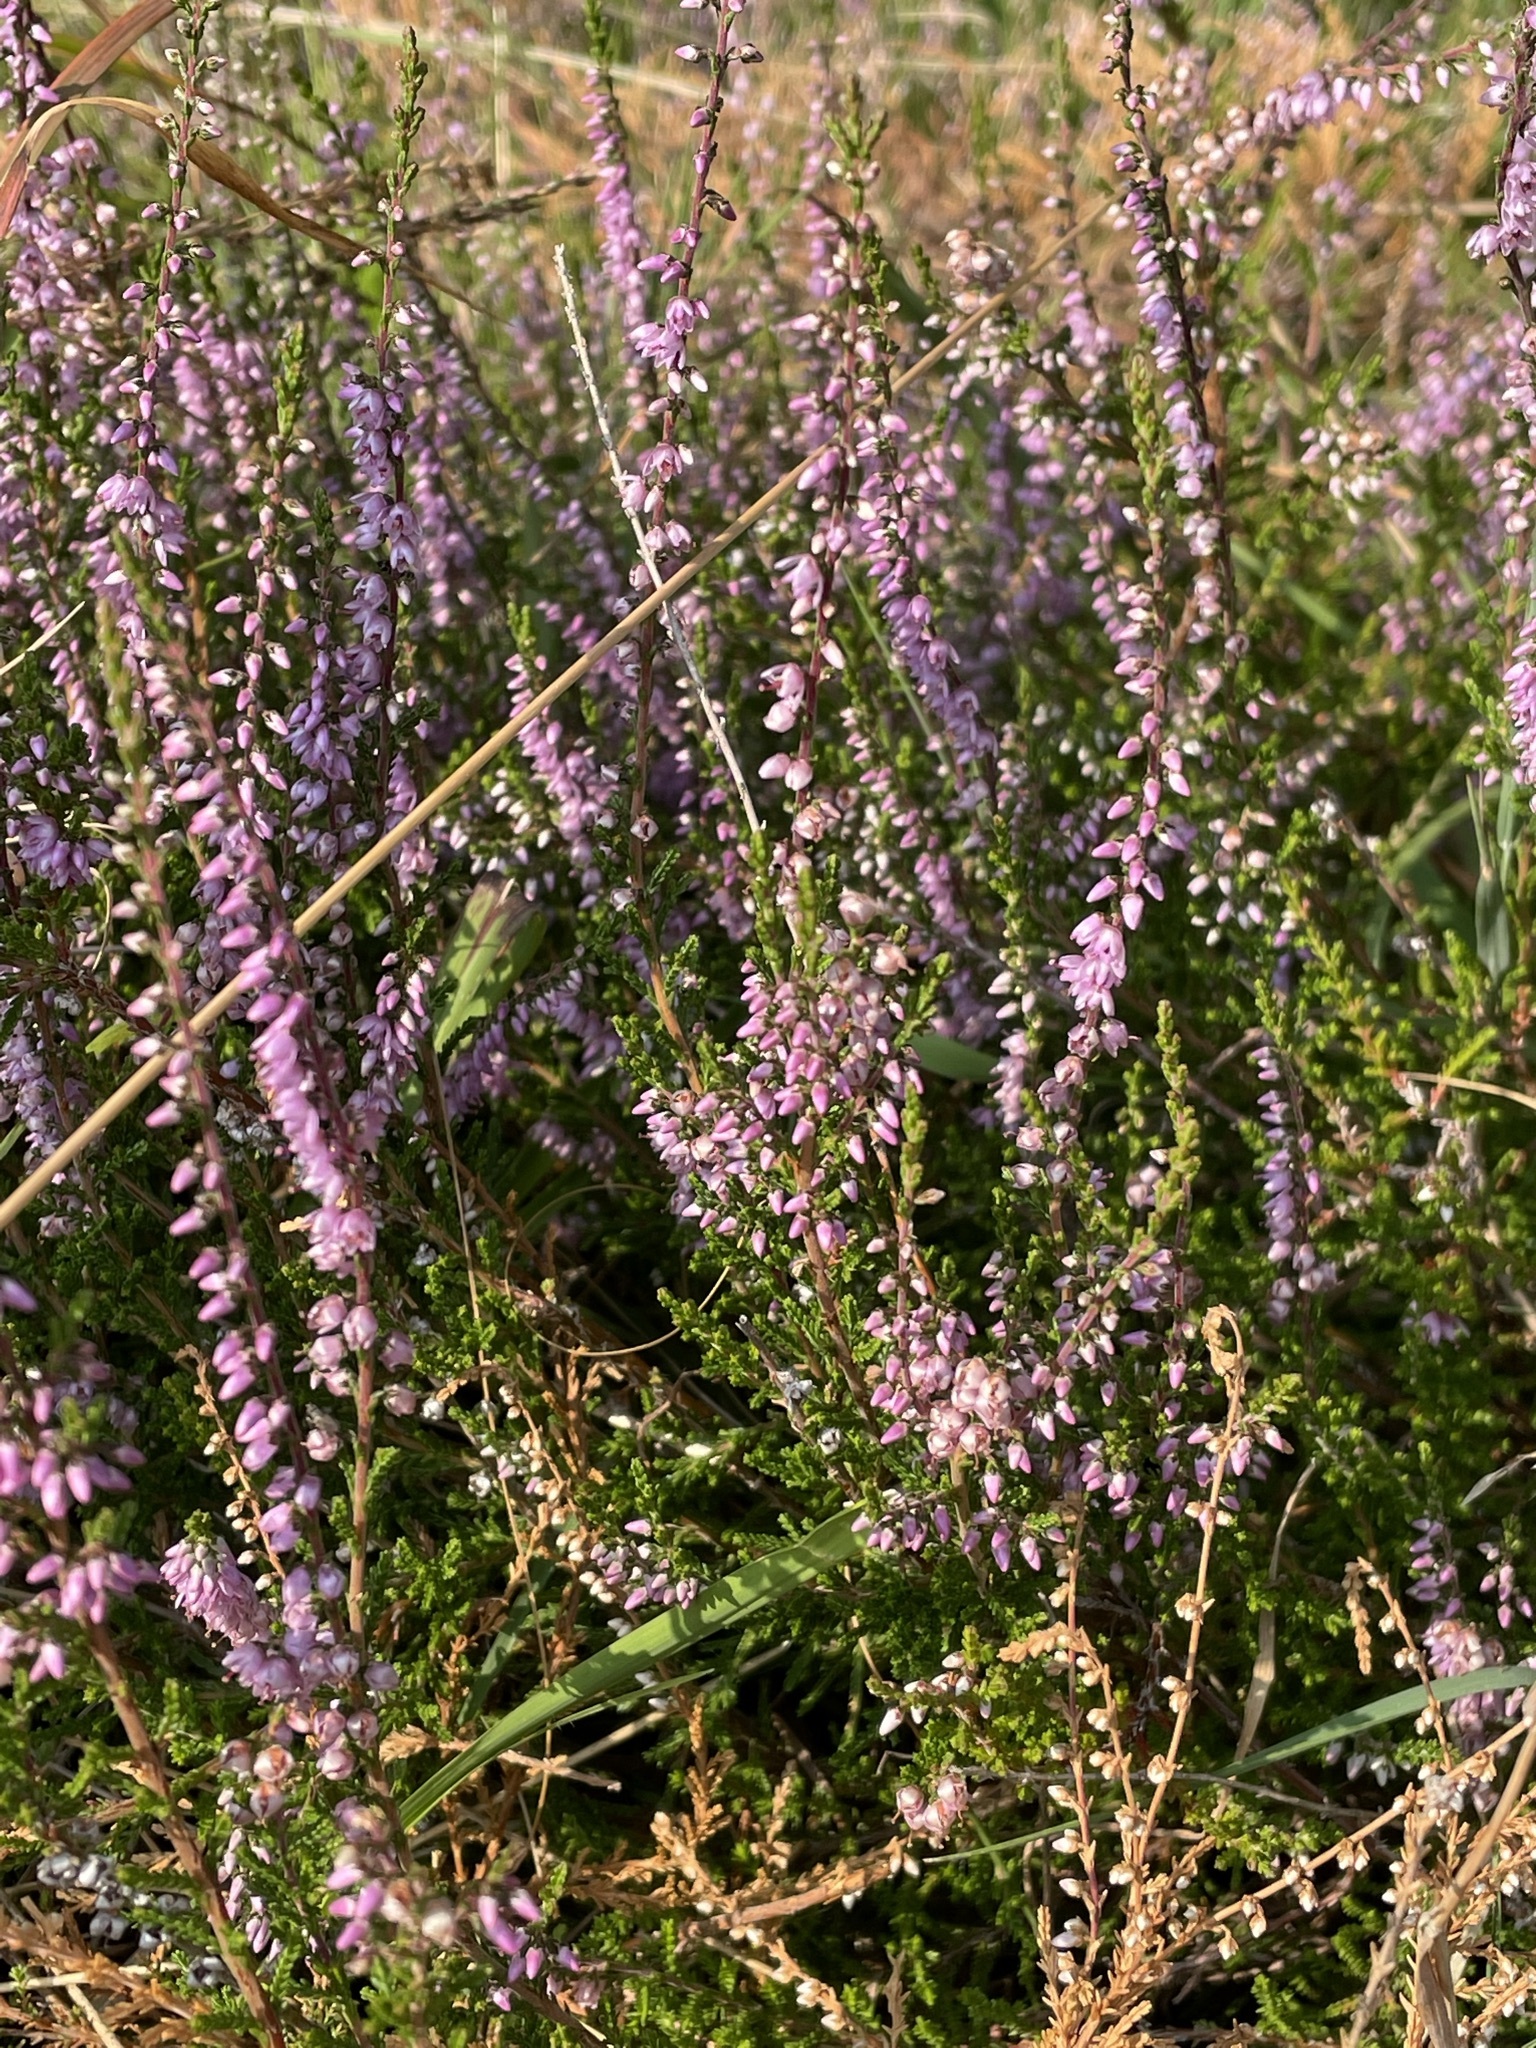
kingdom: Plantae
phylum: Tracheophyta
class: Magnoliopsida
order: Ericales
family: Ericaceae
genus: Calluna
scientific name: Calluna vulgaris
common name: Heather
